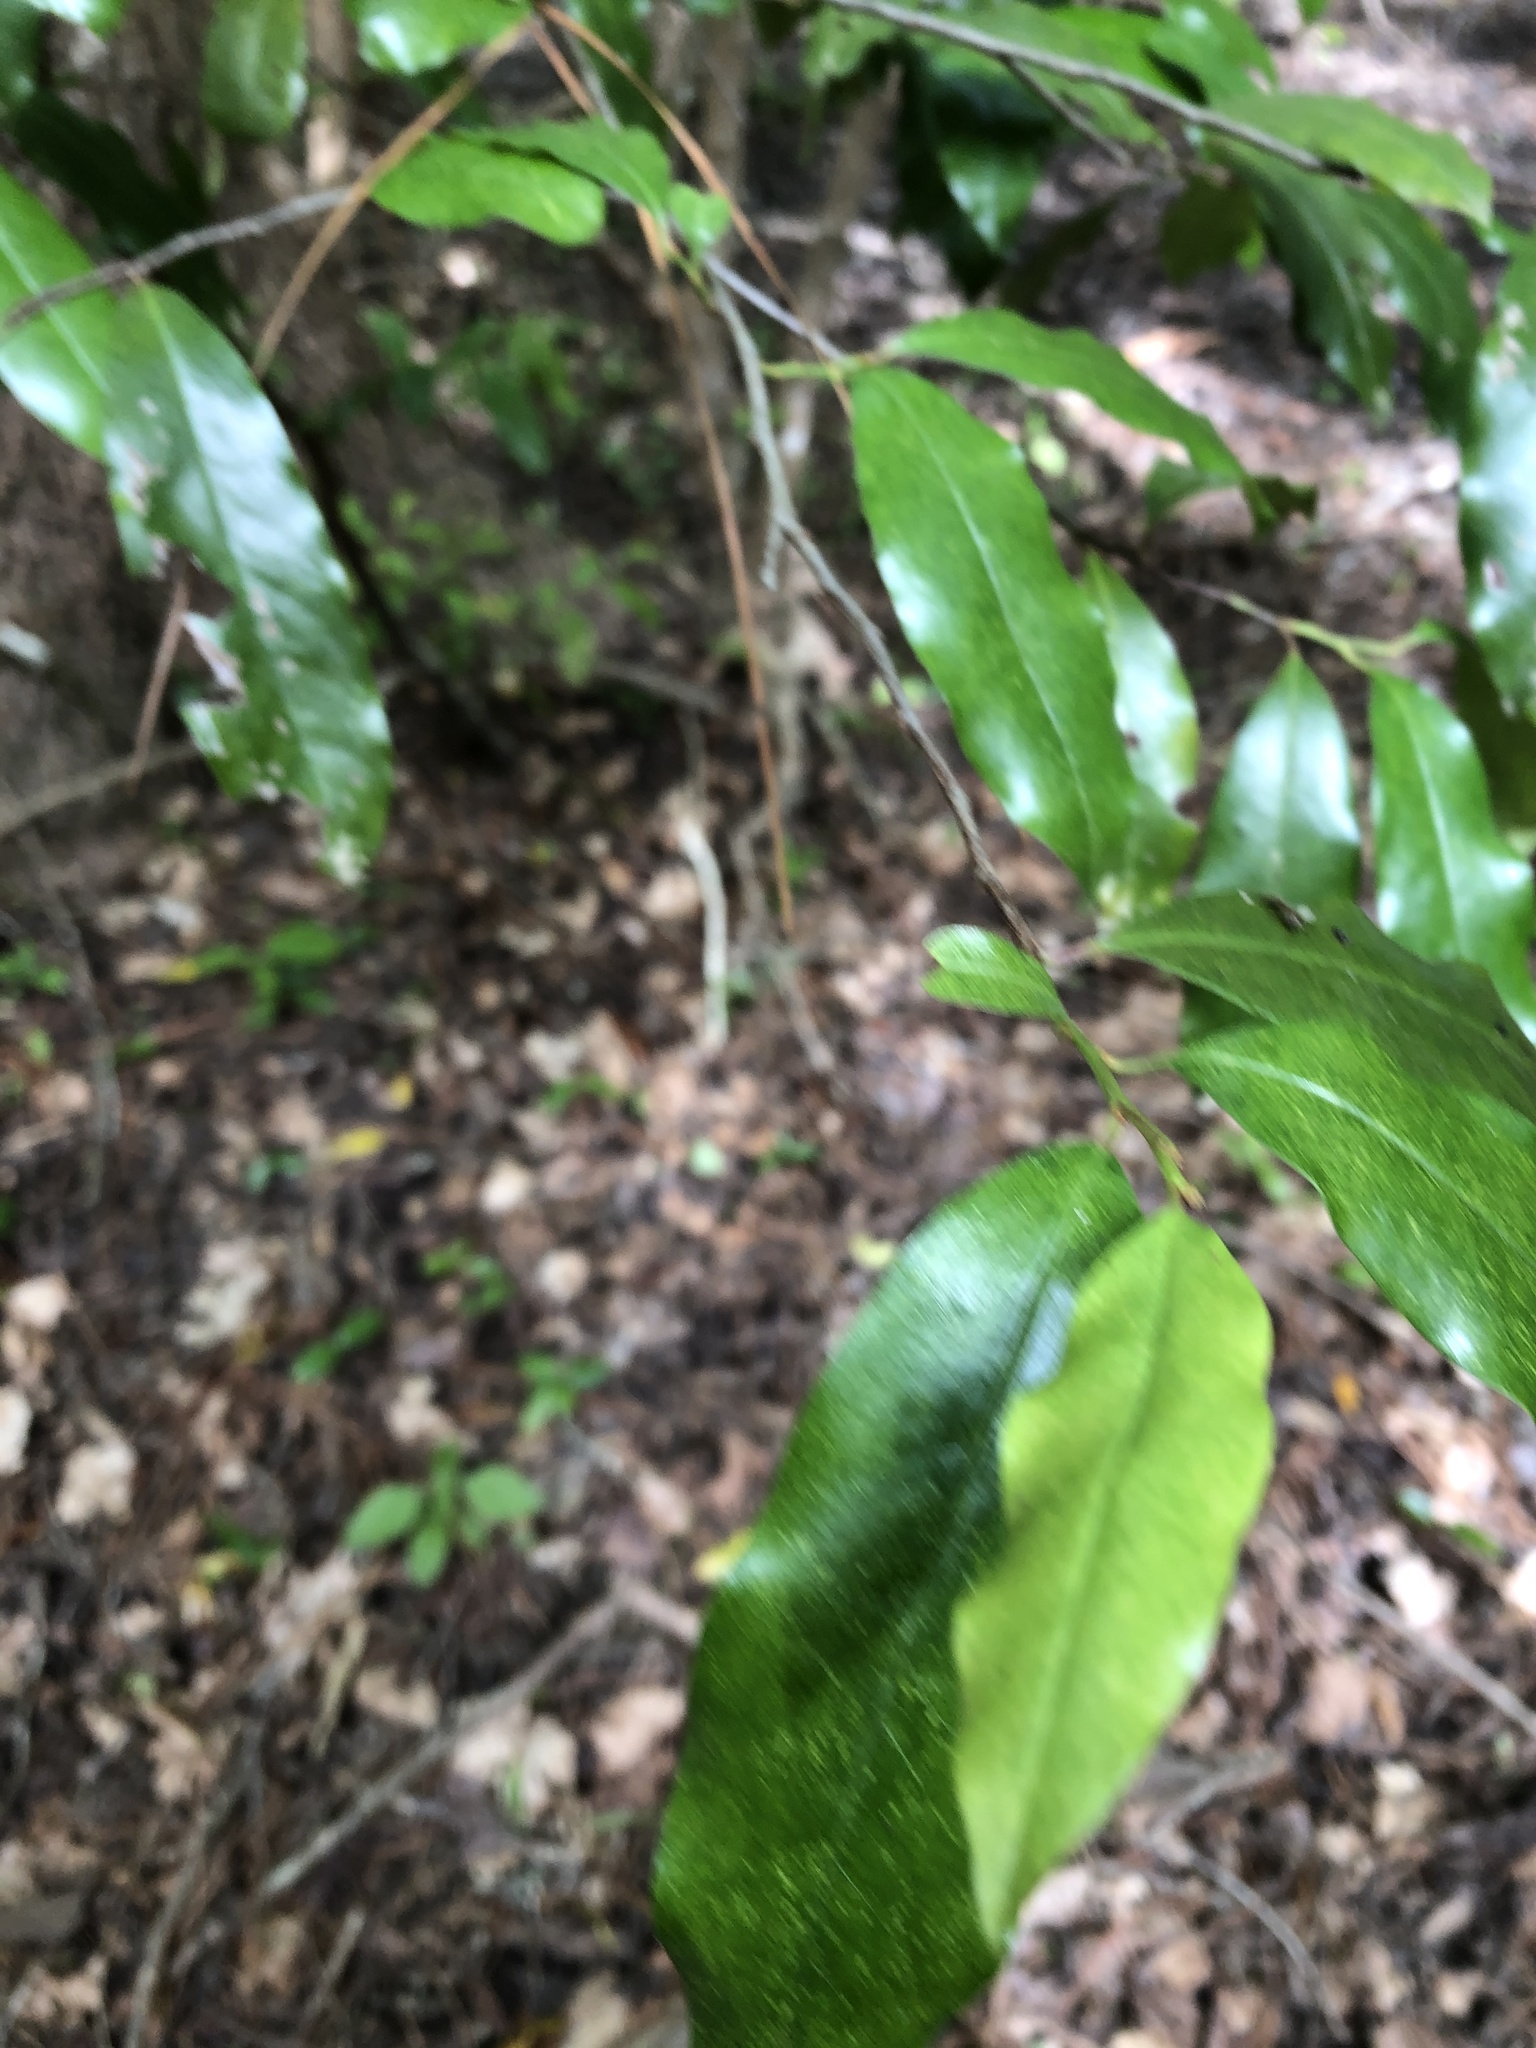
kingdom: Plantae
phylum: Tracheophyta
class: Magnoliopsida
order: Rosales
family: Rosaceae
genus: Prunus
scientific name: Prunus caroliniana
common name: Carolina laurel cherry
